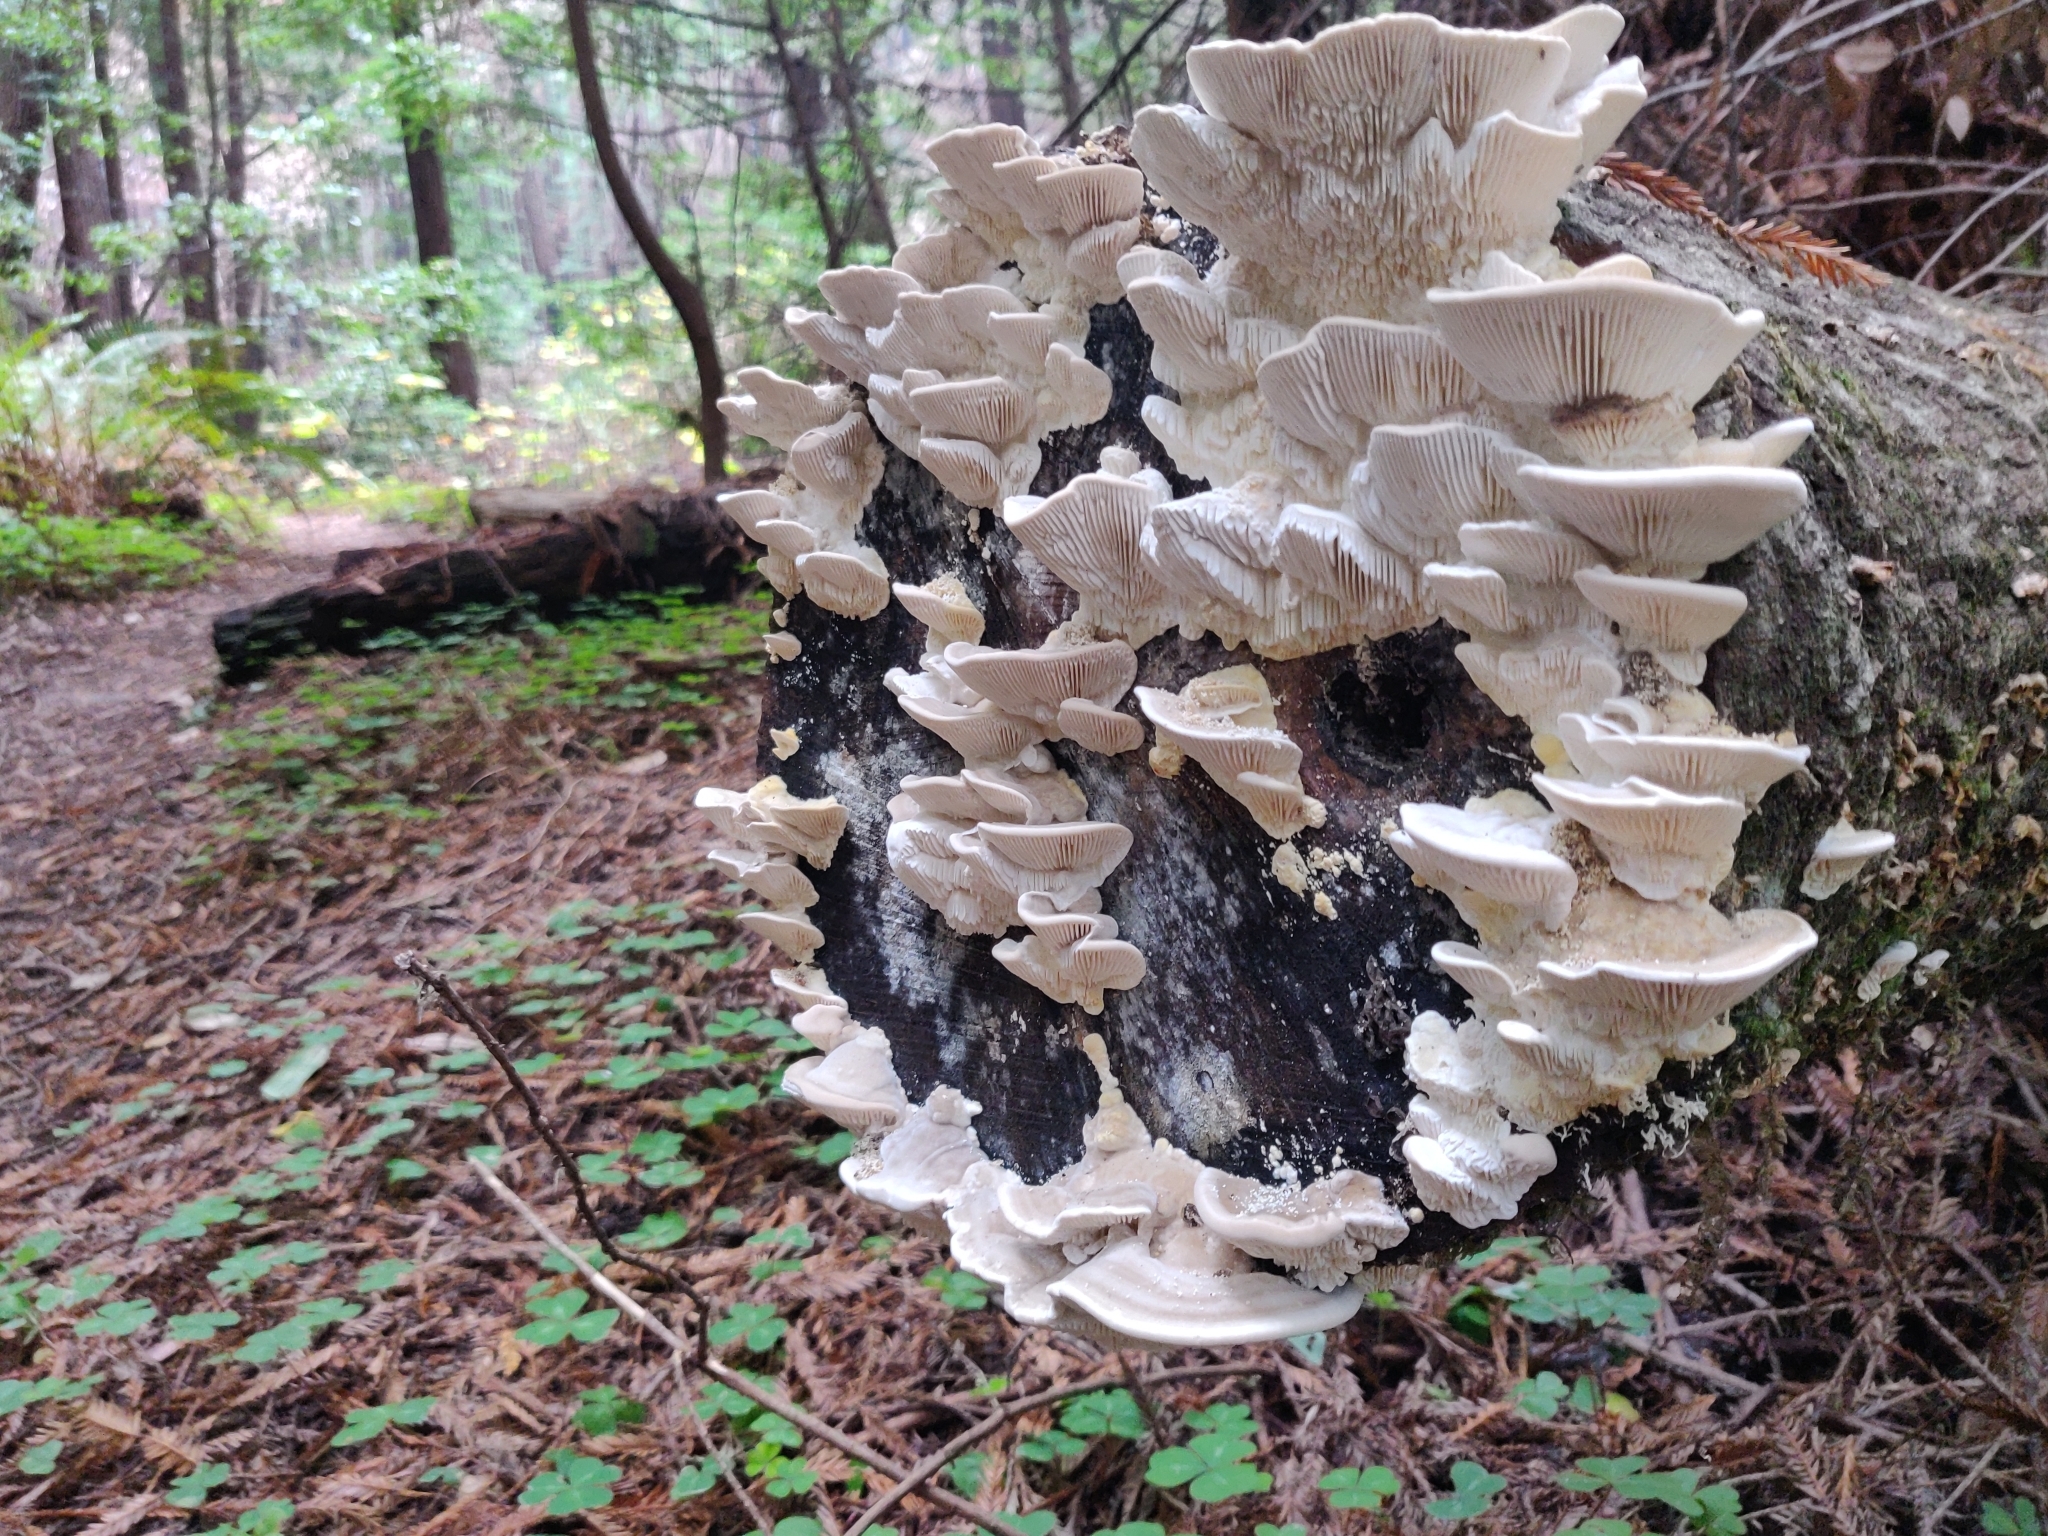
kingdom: Fungi
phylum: Basidiomycota
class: Agaricomycetes
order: Polyporales
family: Polyporaceae
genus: Lenzites
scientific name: Lenzites betulinus
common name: Birch mazegill
